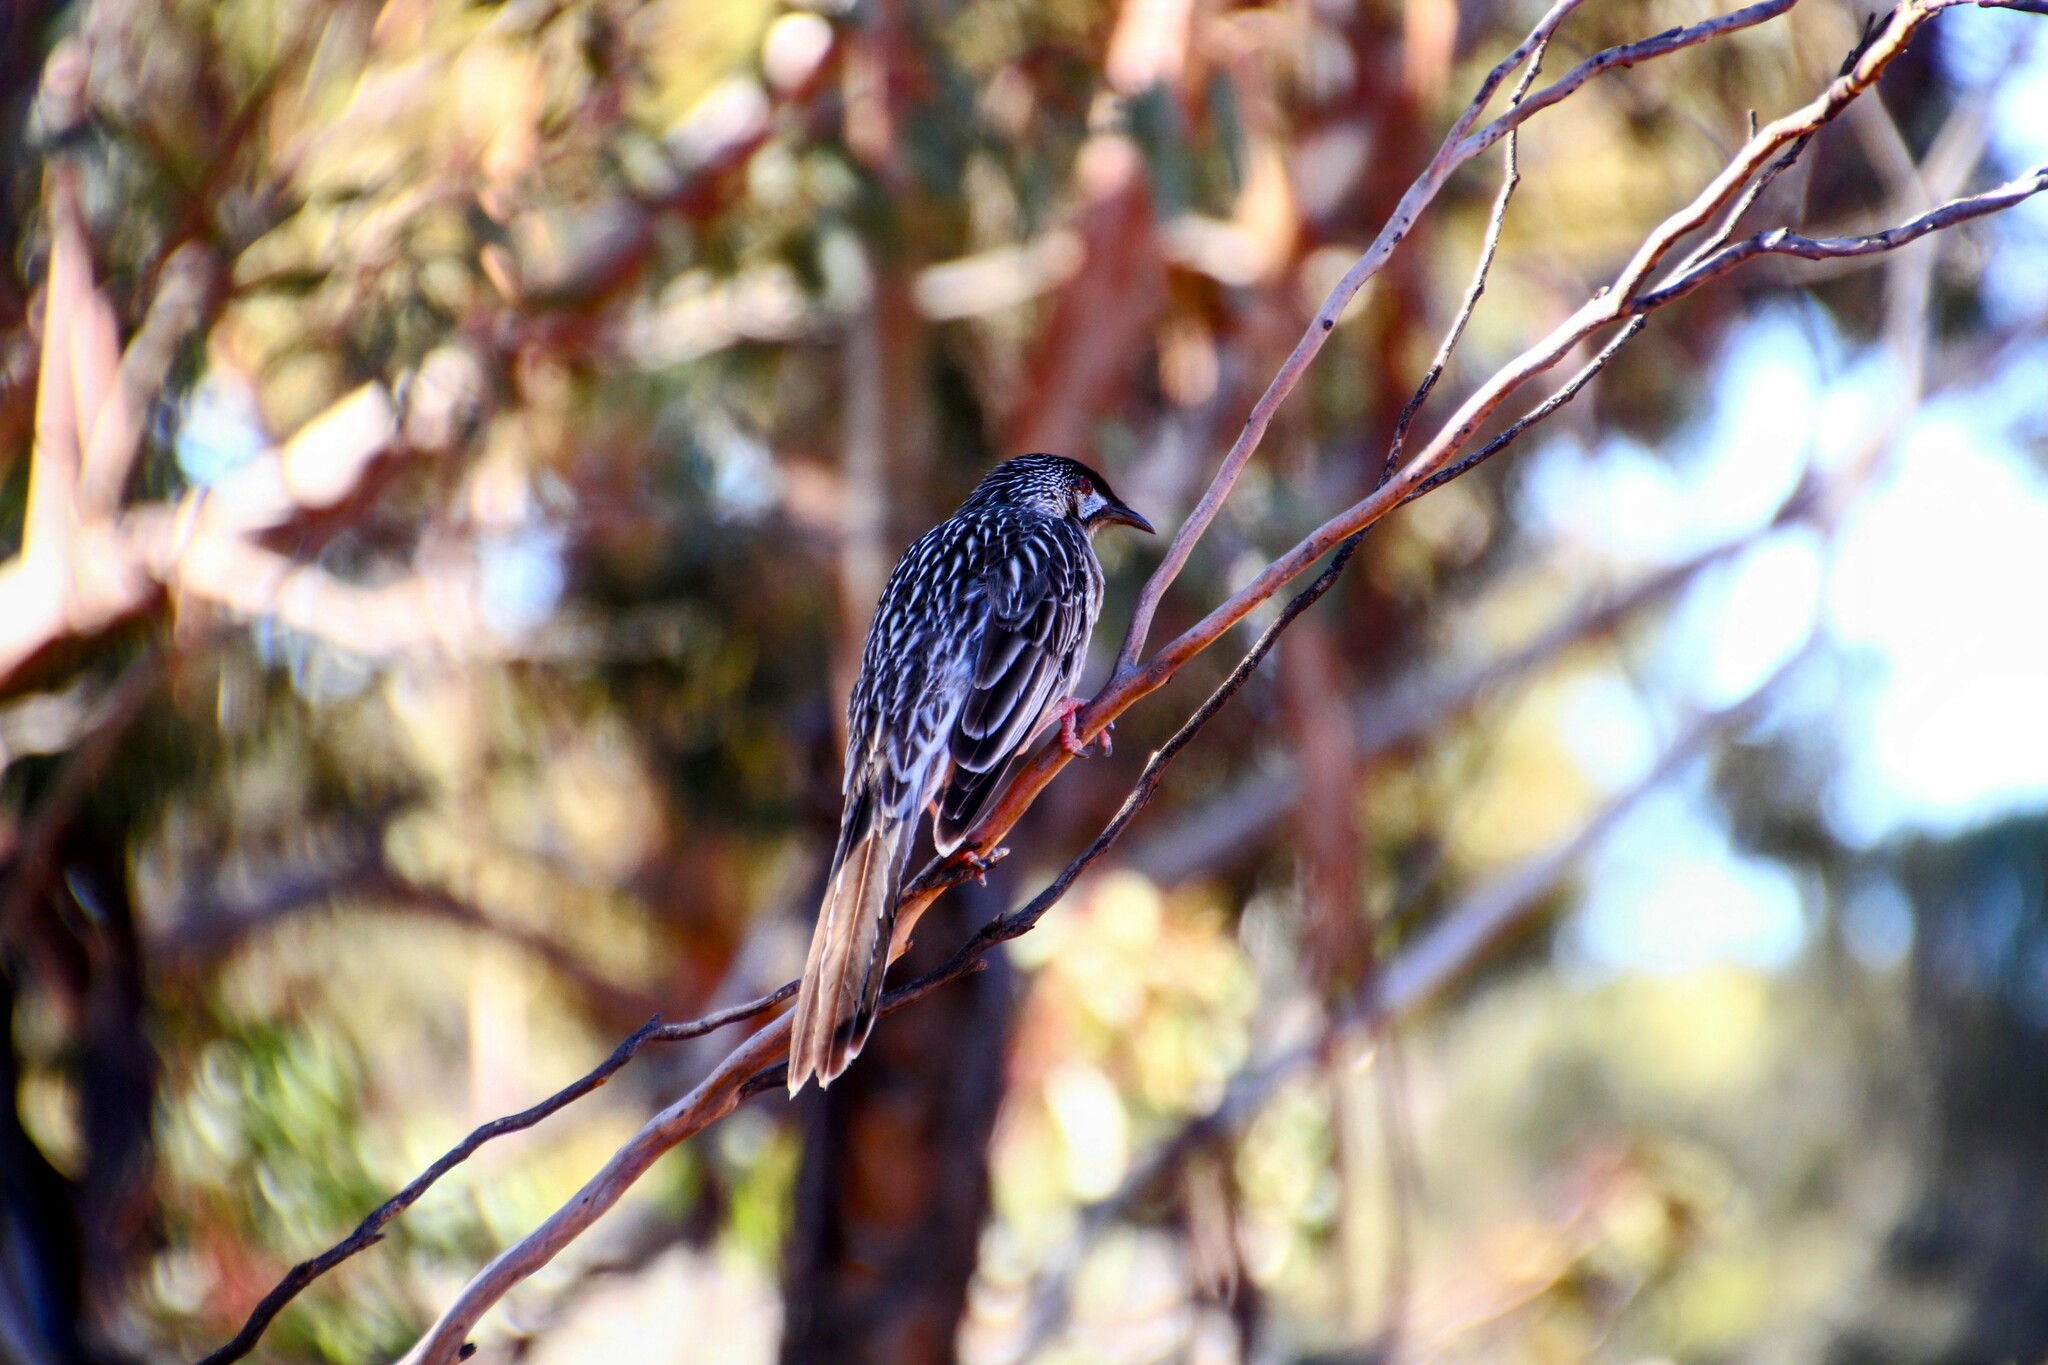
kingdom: Animalia
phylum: Chordata
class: Aves
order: Passeriformes
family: Meliphagidae
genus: Anthochaera
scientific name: Anthochaera carunculata
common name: Red wattlebird
